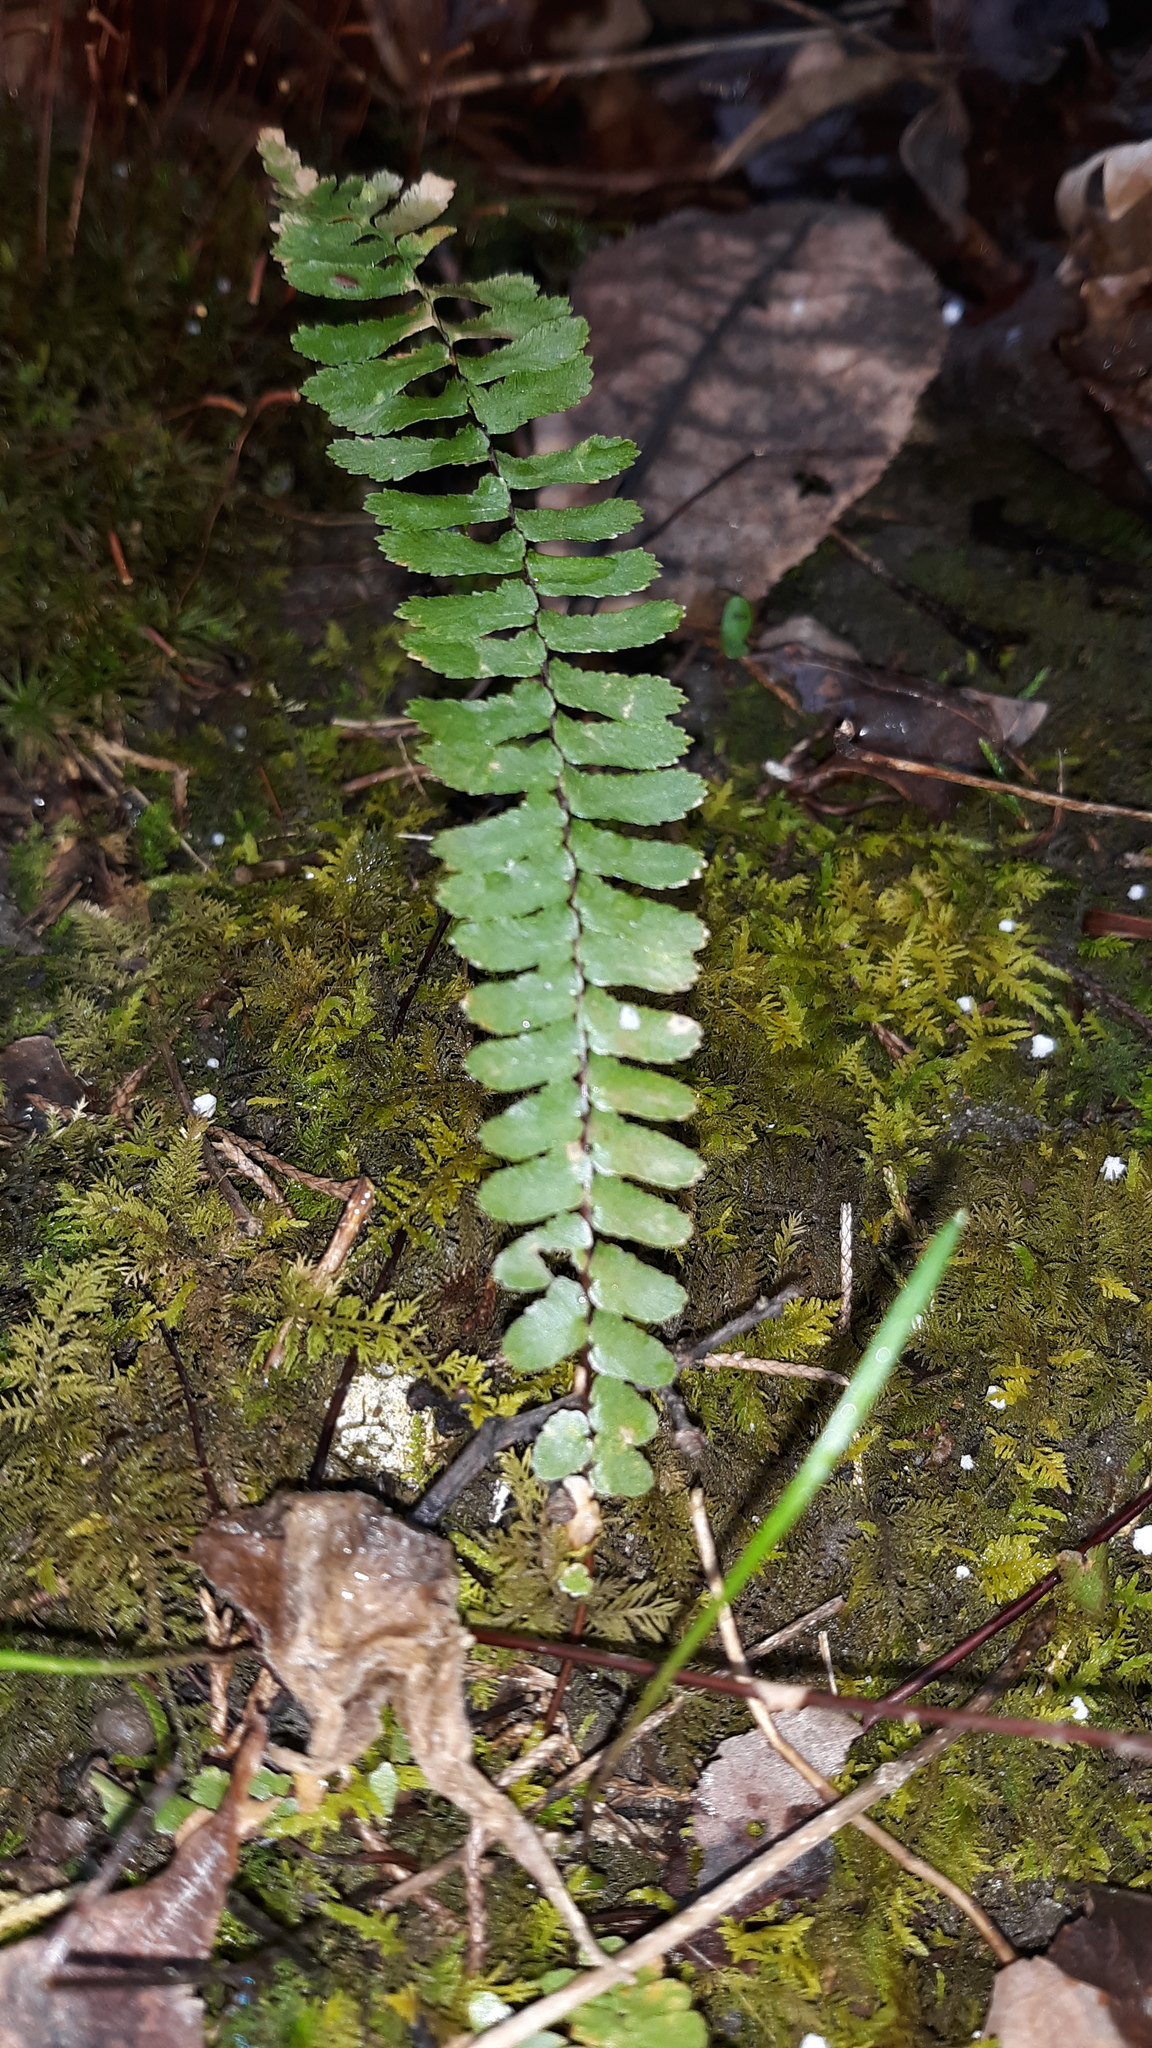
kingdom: Plantae
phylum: Tracheophyta
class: Polypodiopsida
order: Polypodiales
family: Aspleniaceae
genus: Asplenium
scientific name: Asplenium platyneuron
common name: Ebony spleenwort
